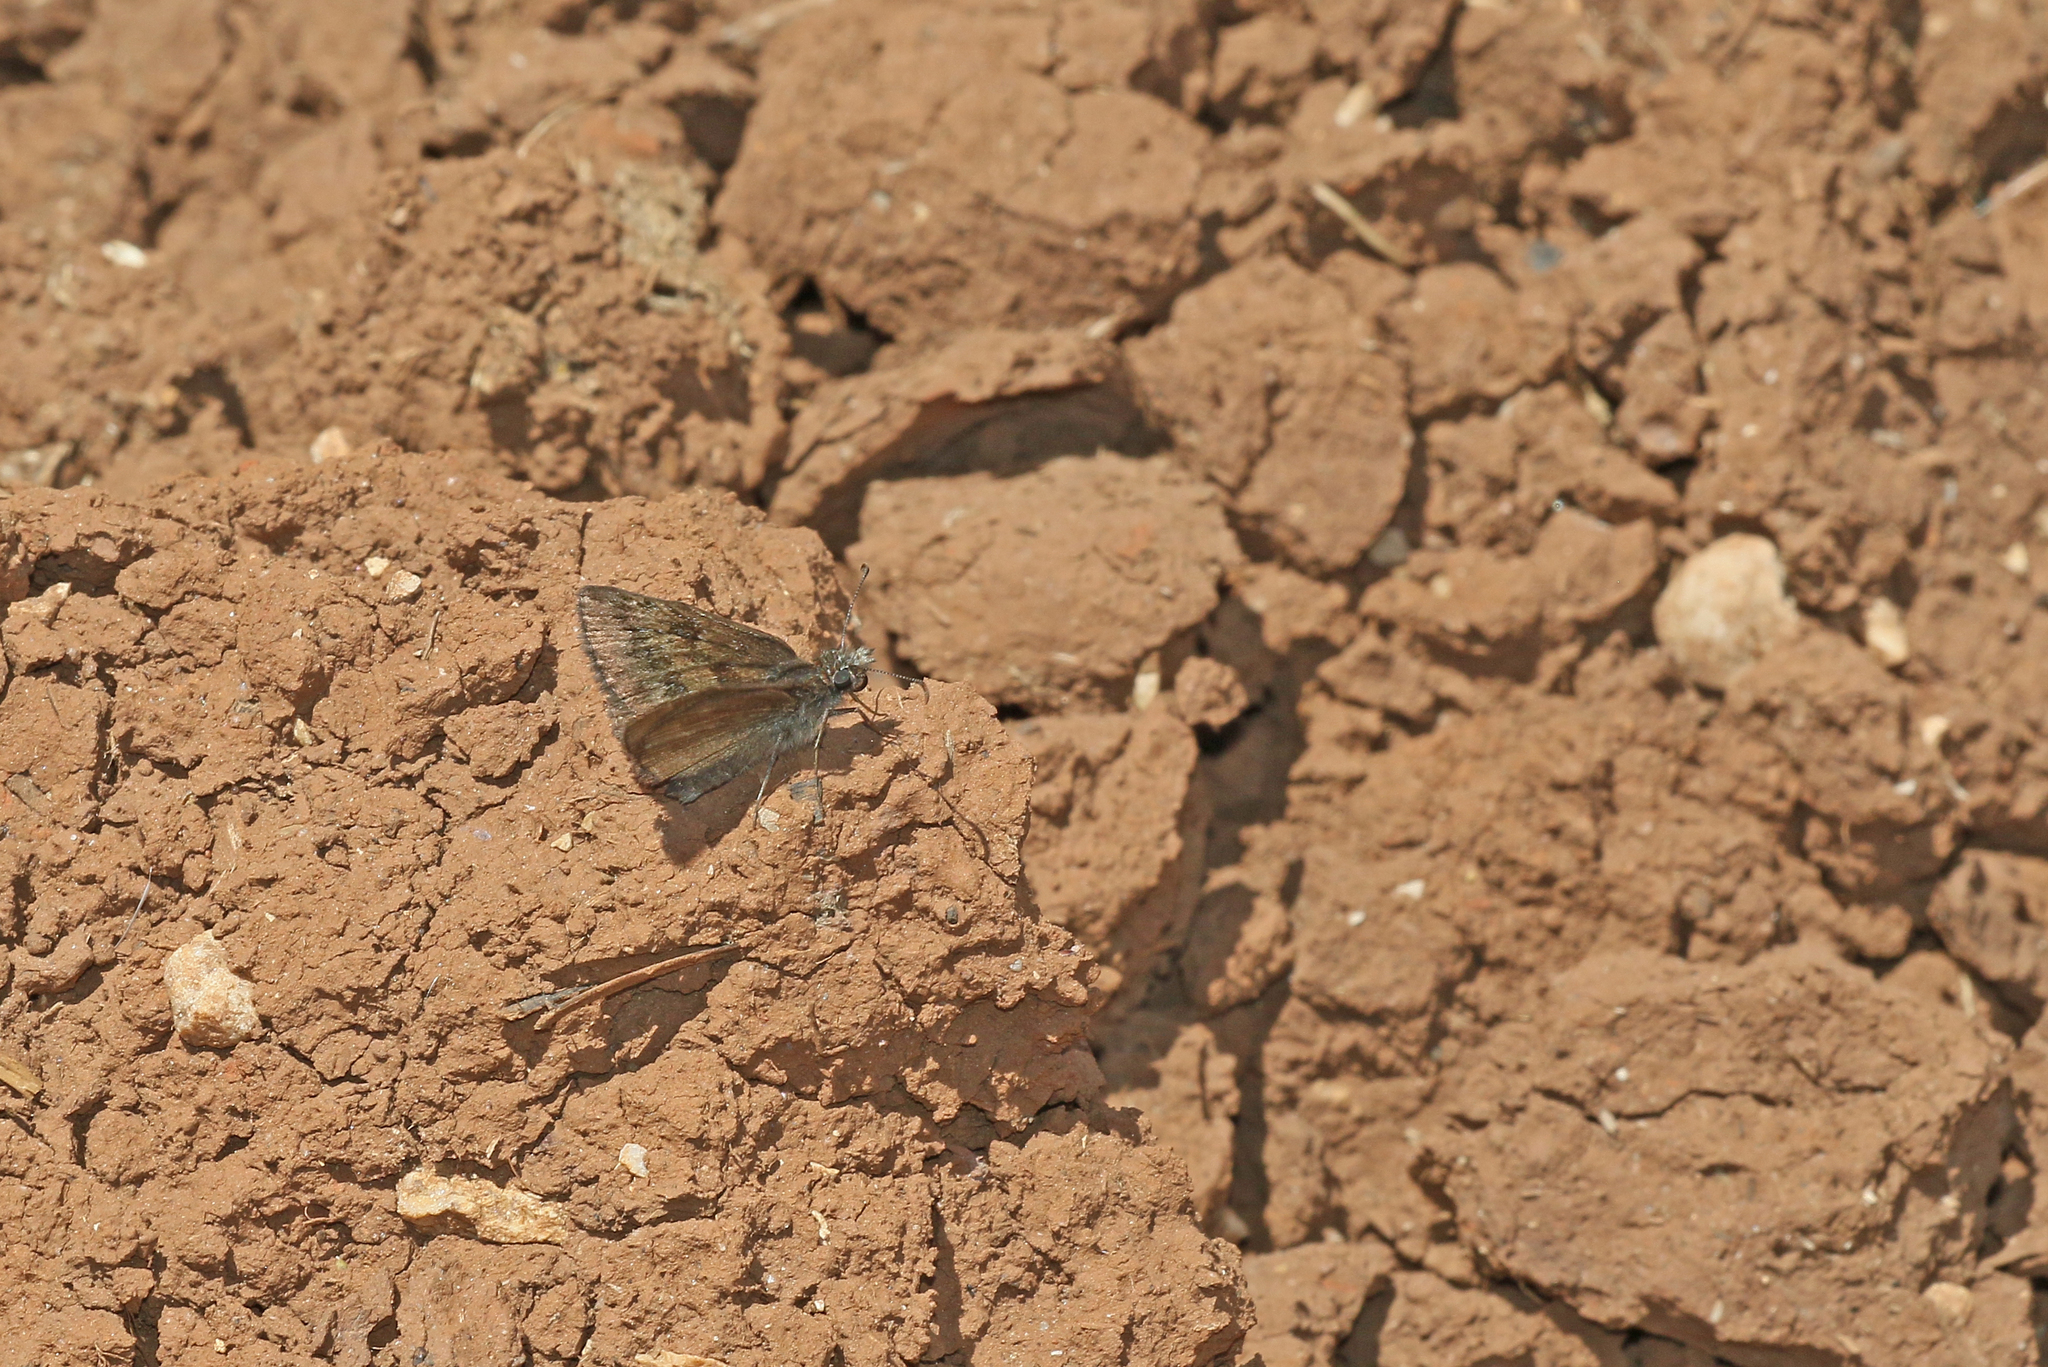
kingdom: Animalia
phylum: Arthropoda
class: Insecta
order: Lepidoptera
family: Hesperiidae
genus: Erynnis
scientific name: Erynnis tages
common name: Dingy skipper
